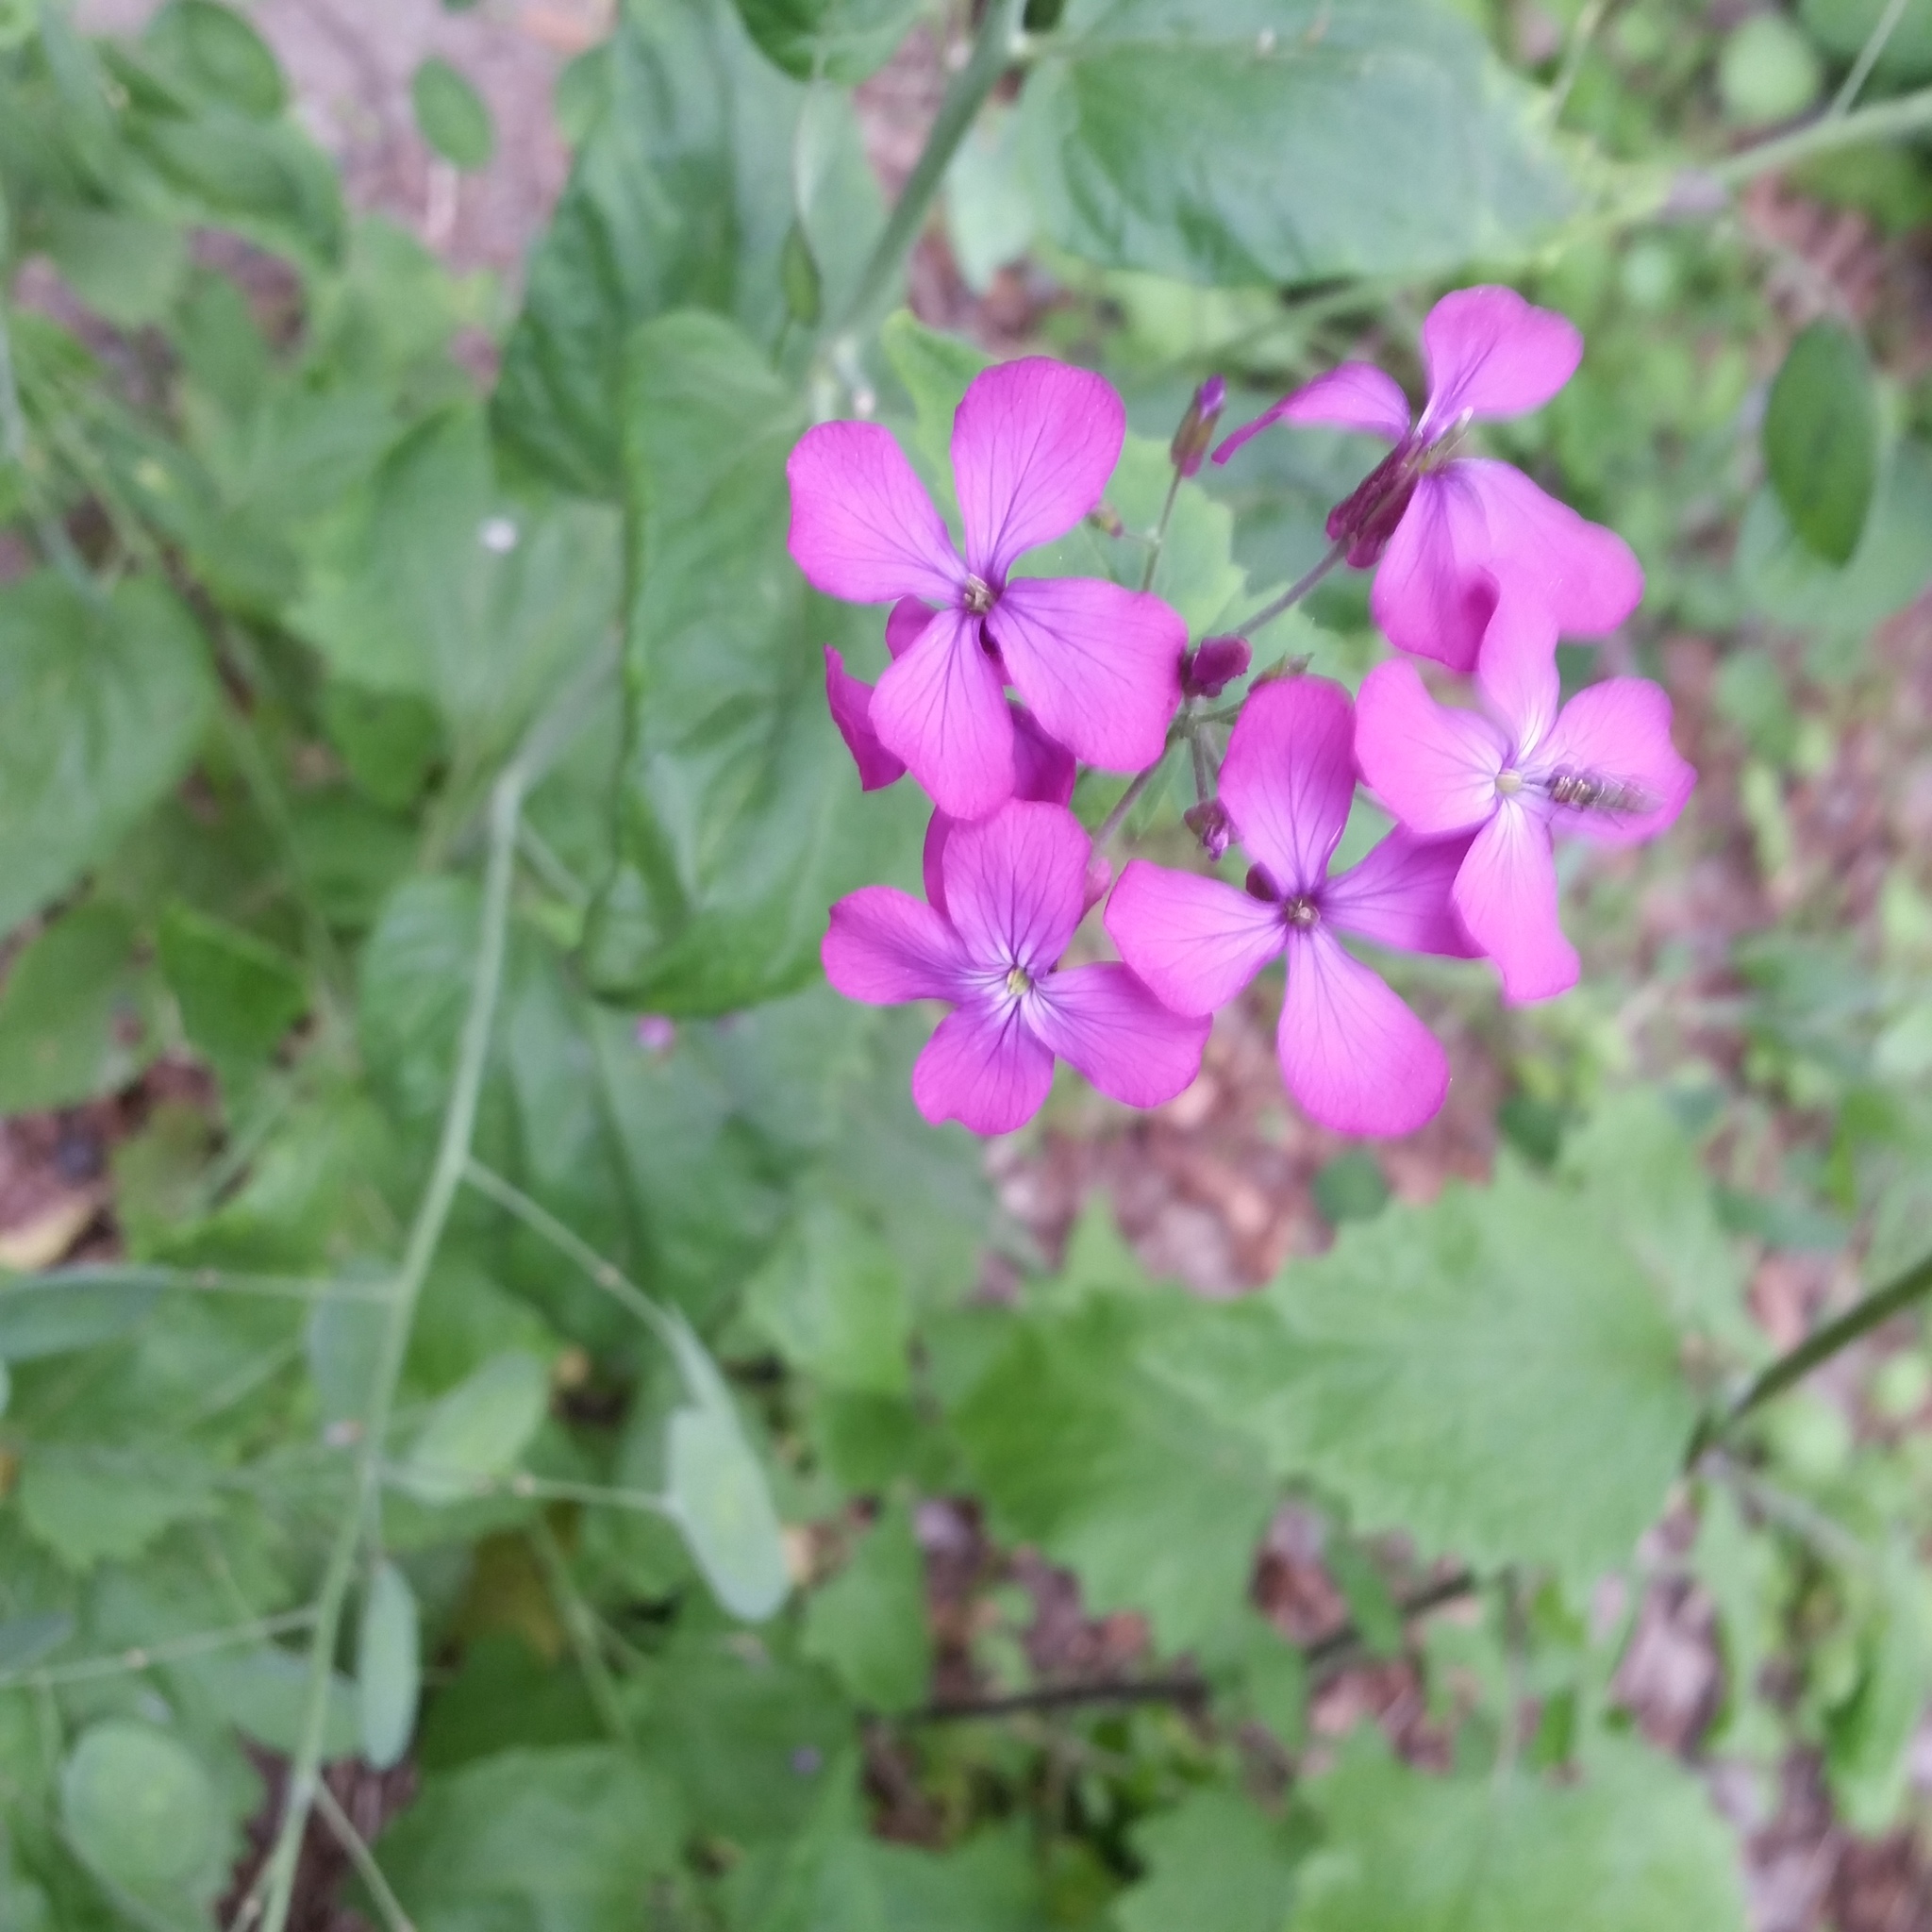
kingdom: Plantae
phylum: Tracheophyta
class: Magnoliopsida
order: Brassicales
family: Brassicaceae
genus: Lunaria
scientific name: Lunaria annua
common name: Honesty
